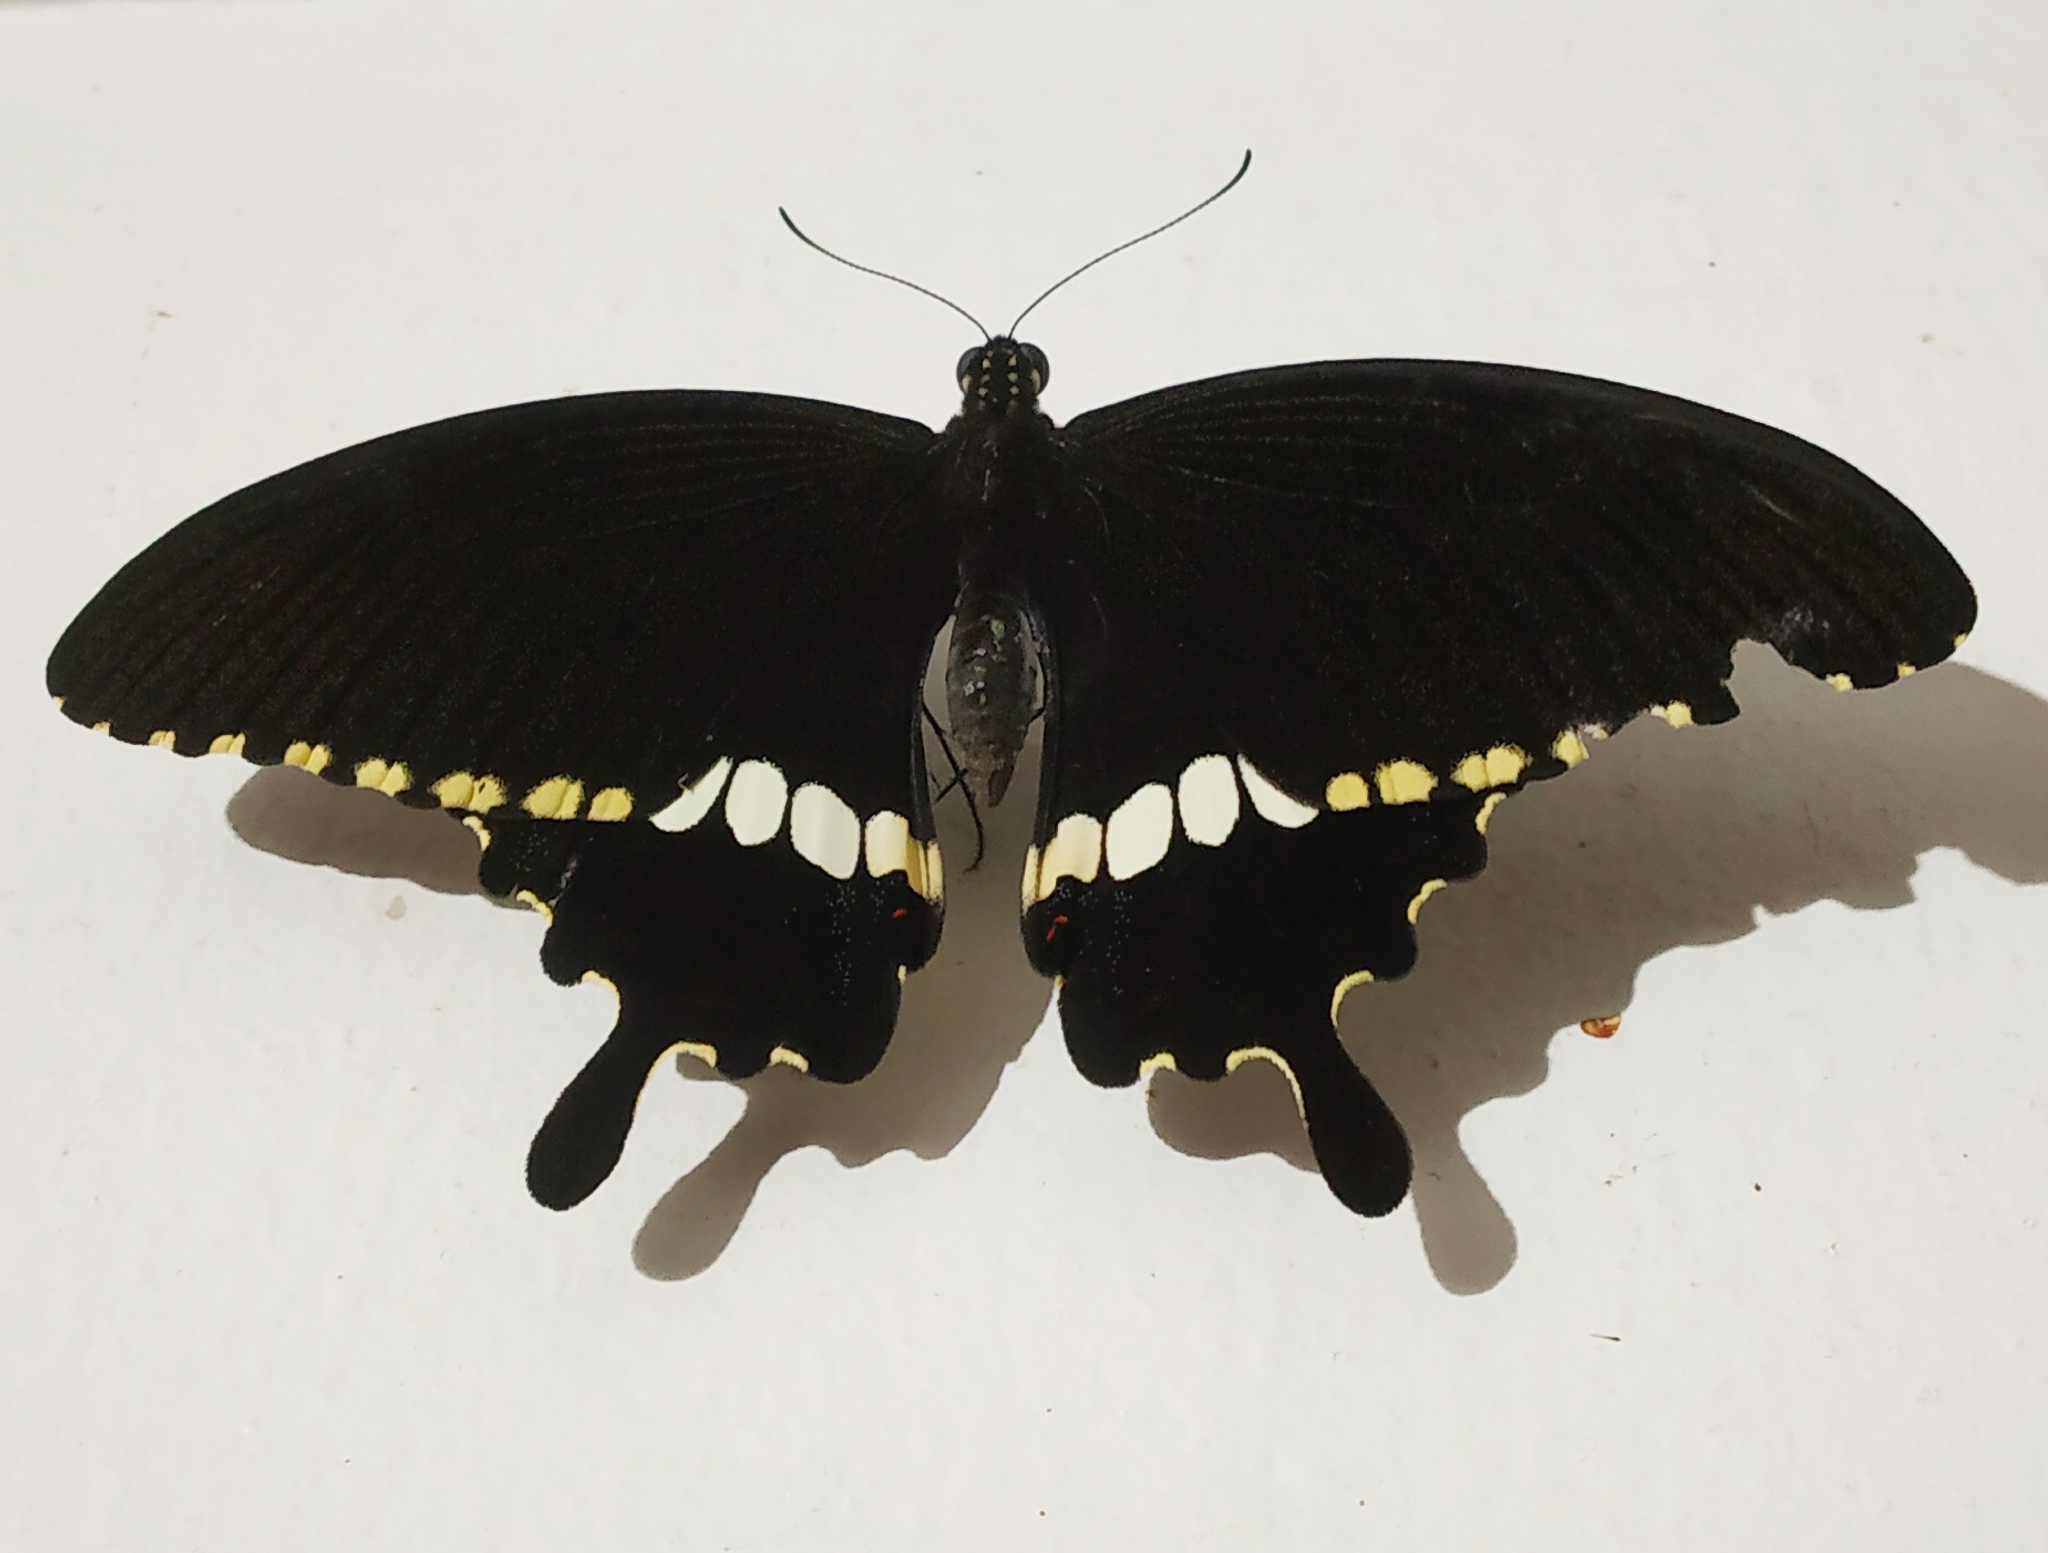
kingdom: Animalia
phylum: Arthropoda
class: Insecta
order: Lepidoptera
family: Papilionidae
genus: Papilio
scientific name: Papilio polytes
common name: Common mormon
